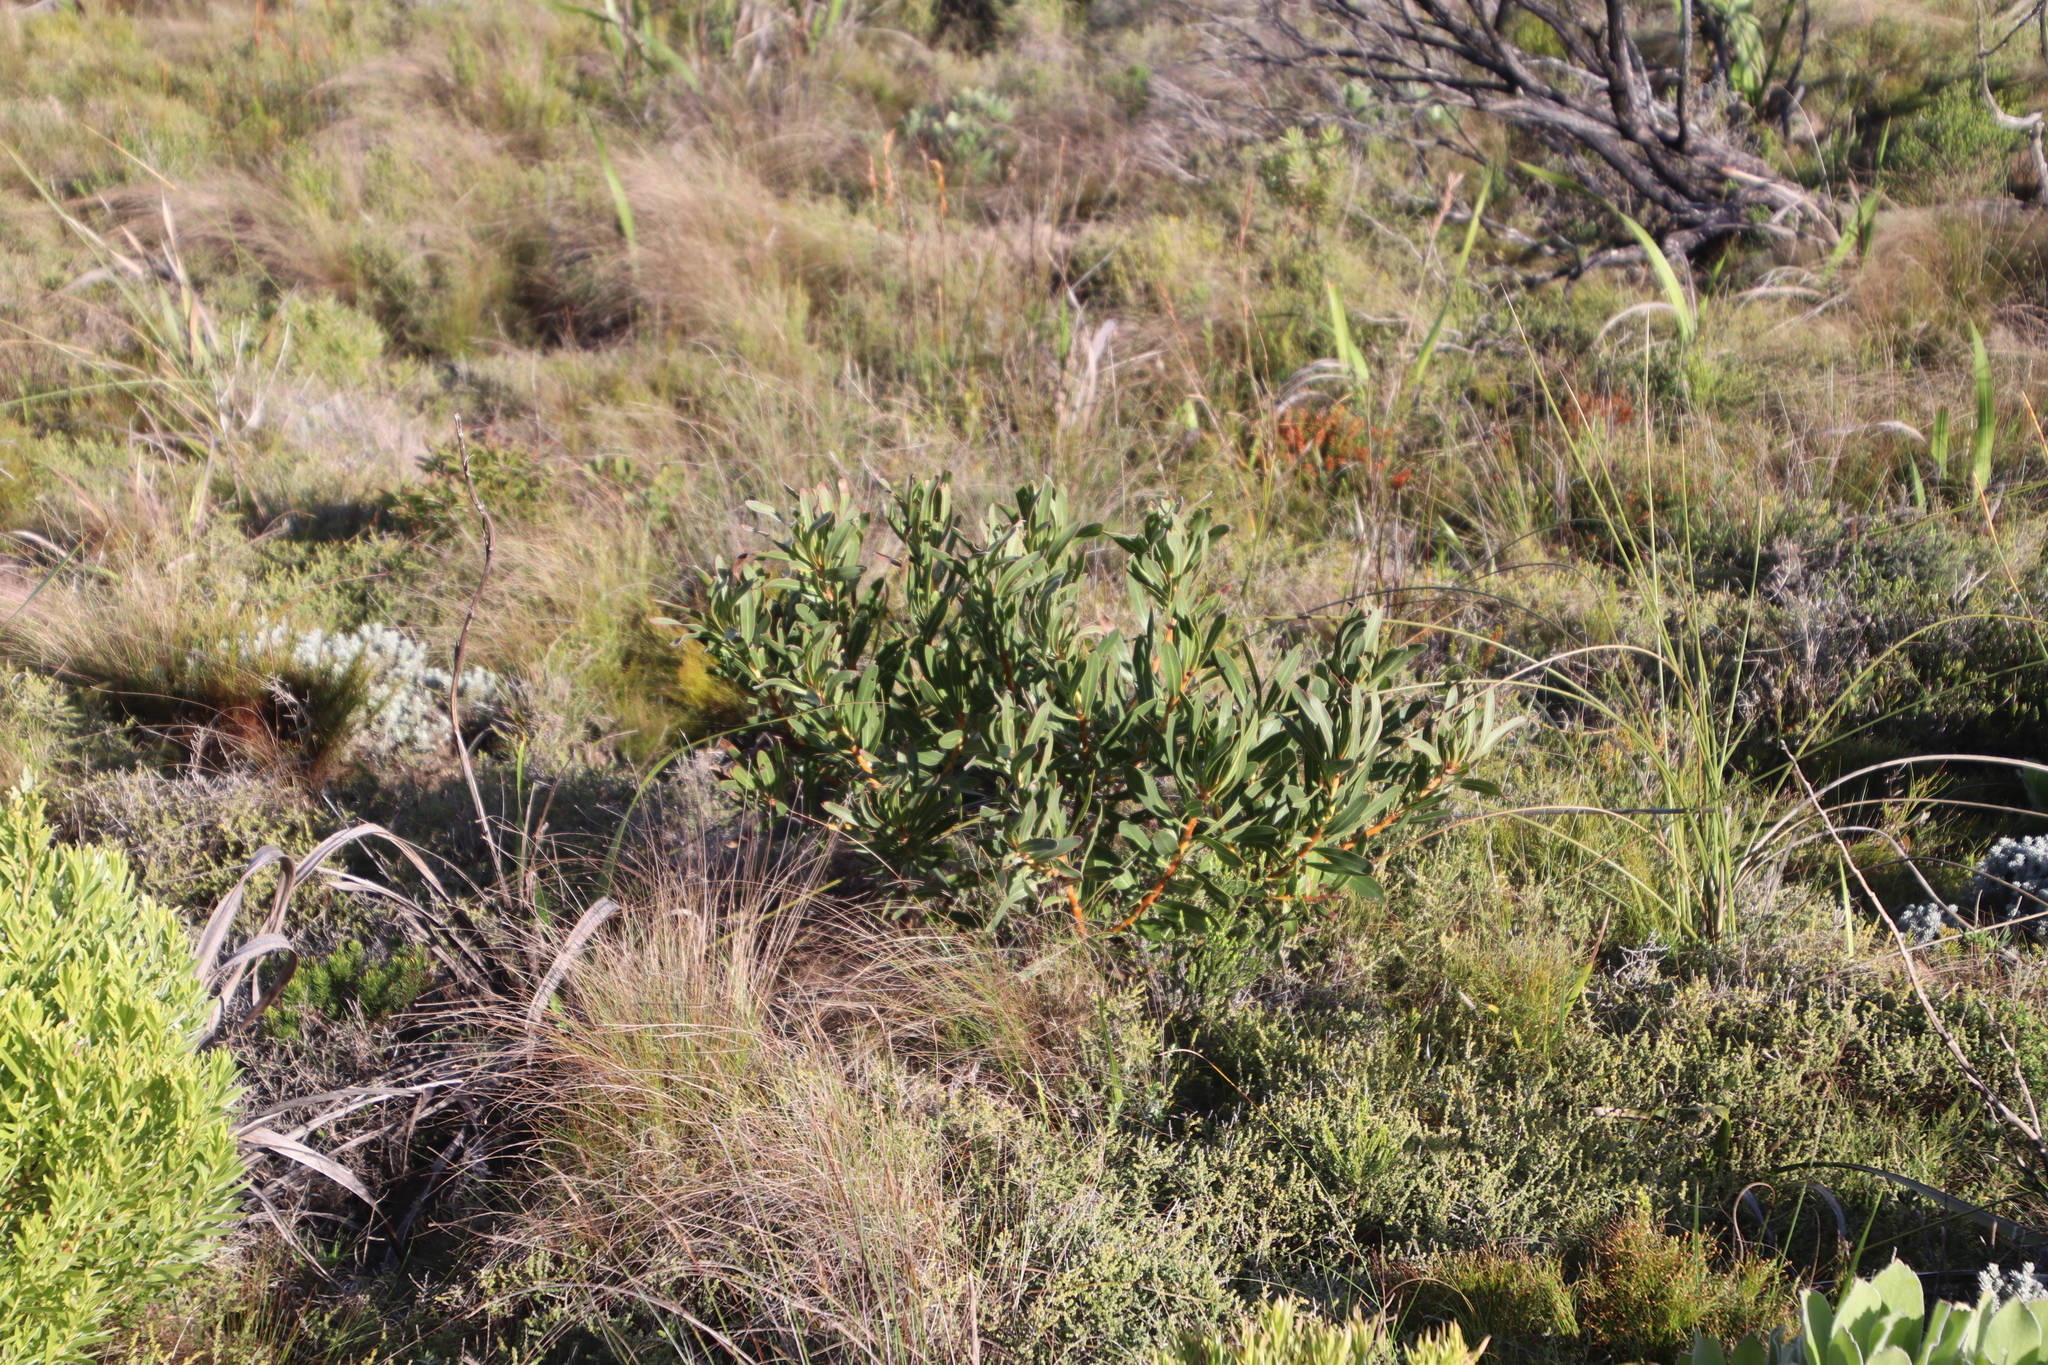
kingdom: Plantae
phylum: Tracheophyta
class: Magnoliopsida
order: Proteales
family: Proteaceae
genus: Protea
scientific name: Protea lepidocarpodendron
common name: Black-bearded protea
